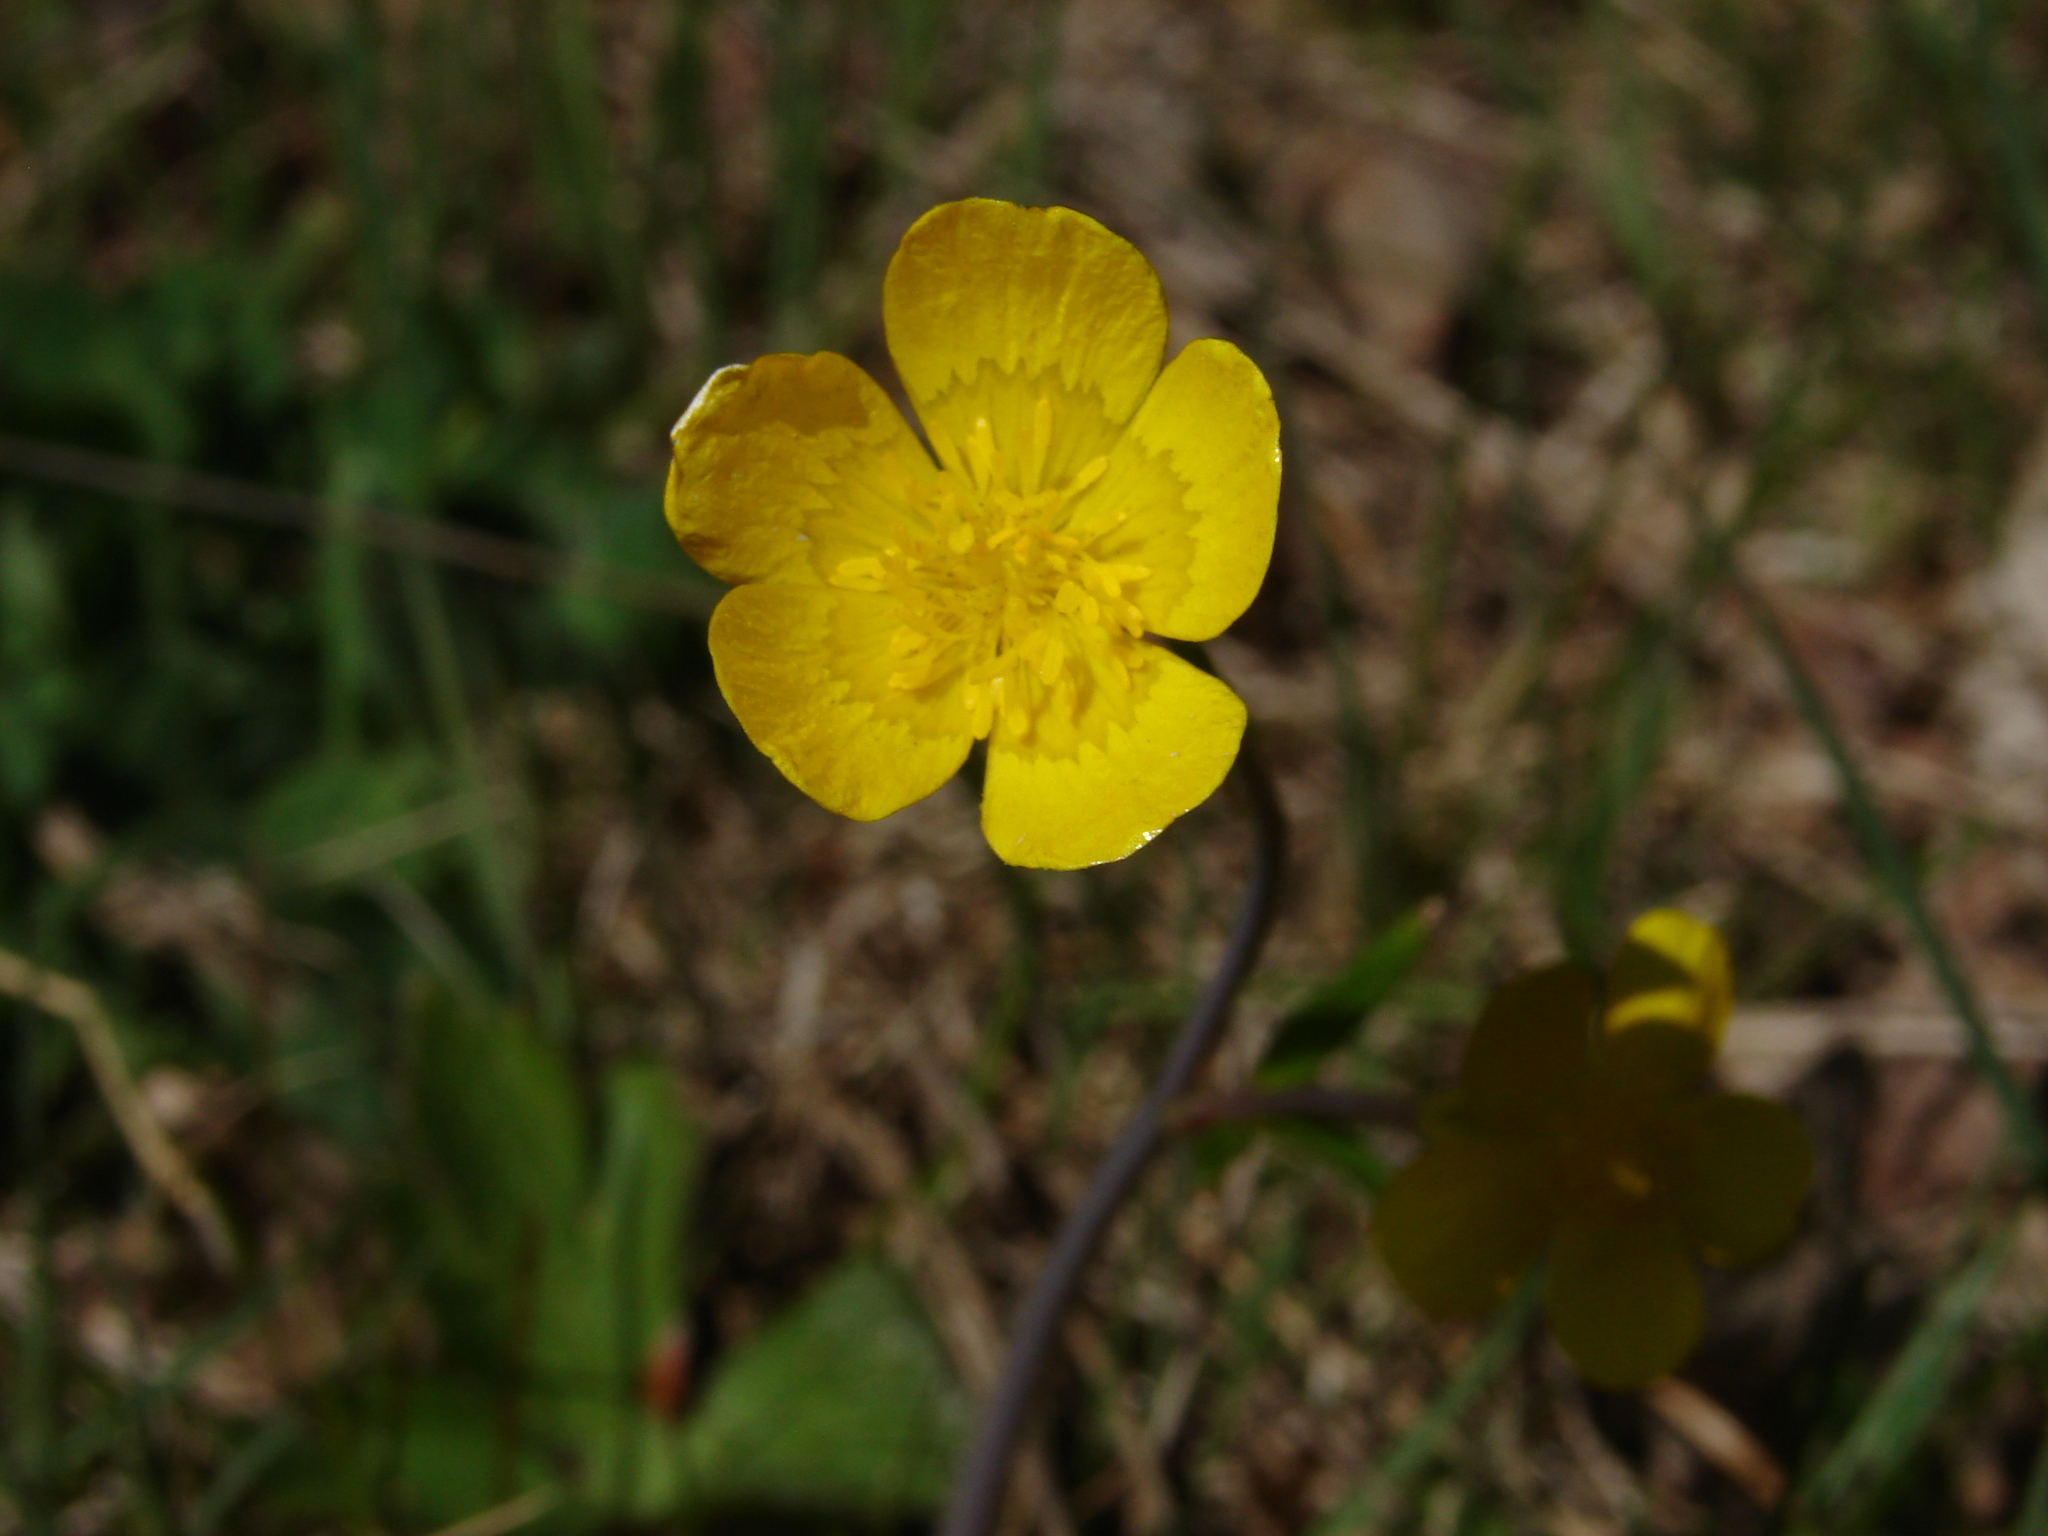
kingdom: Plantae
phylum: Tracheophyta
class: Magnoliopsida
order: Ranunculales
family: Ranunculaceae
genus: Ranunculus
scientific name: Ranunculus
